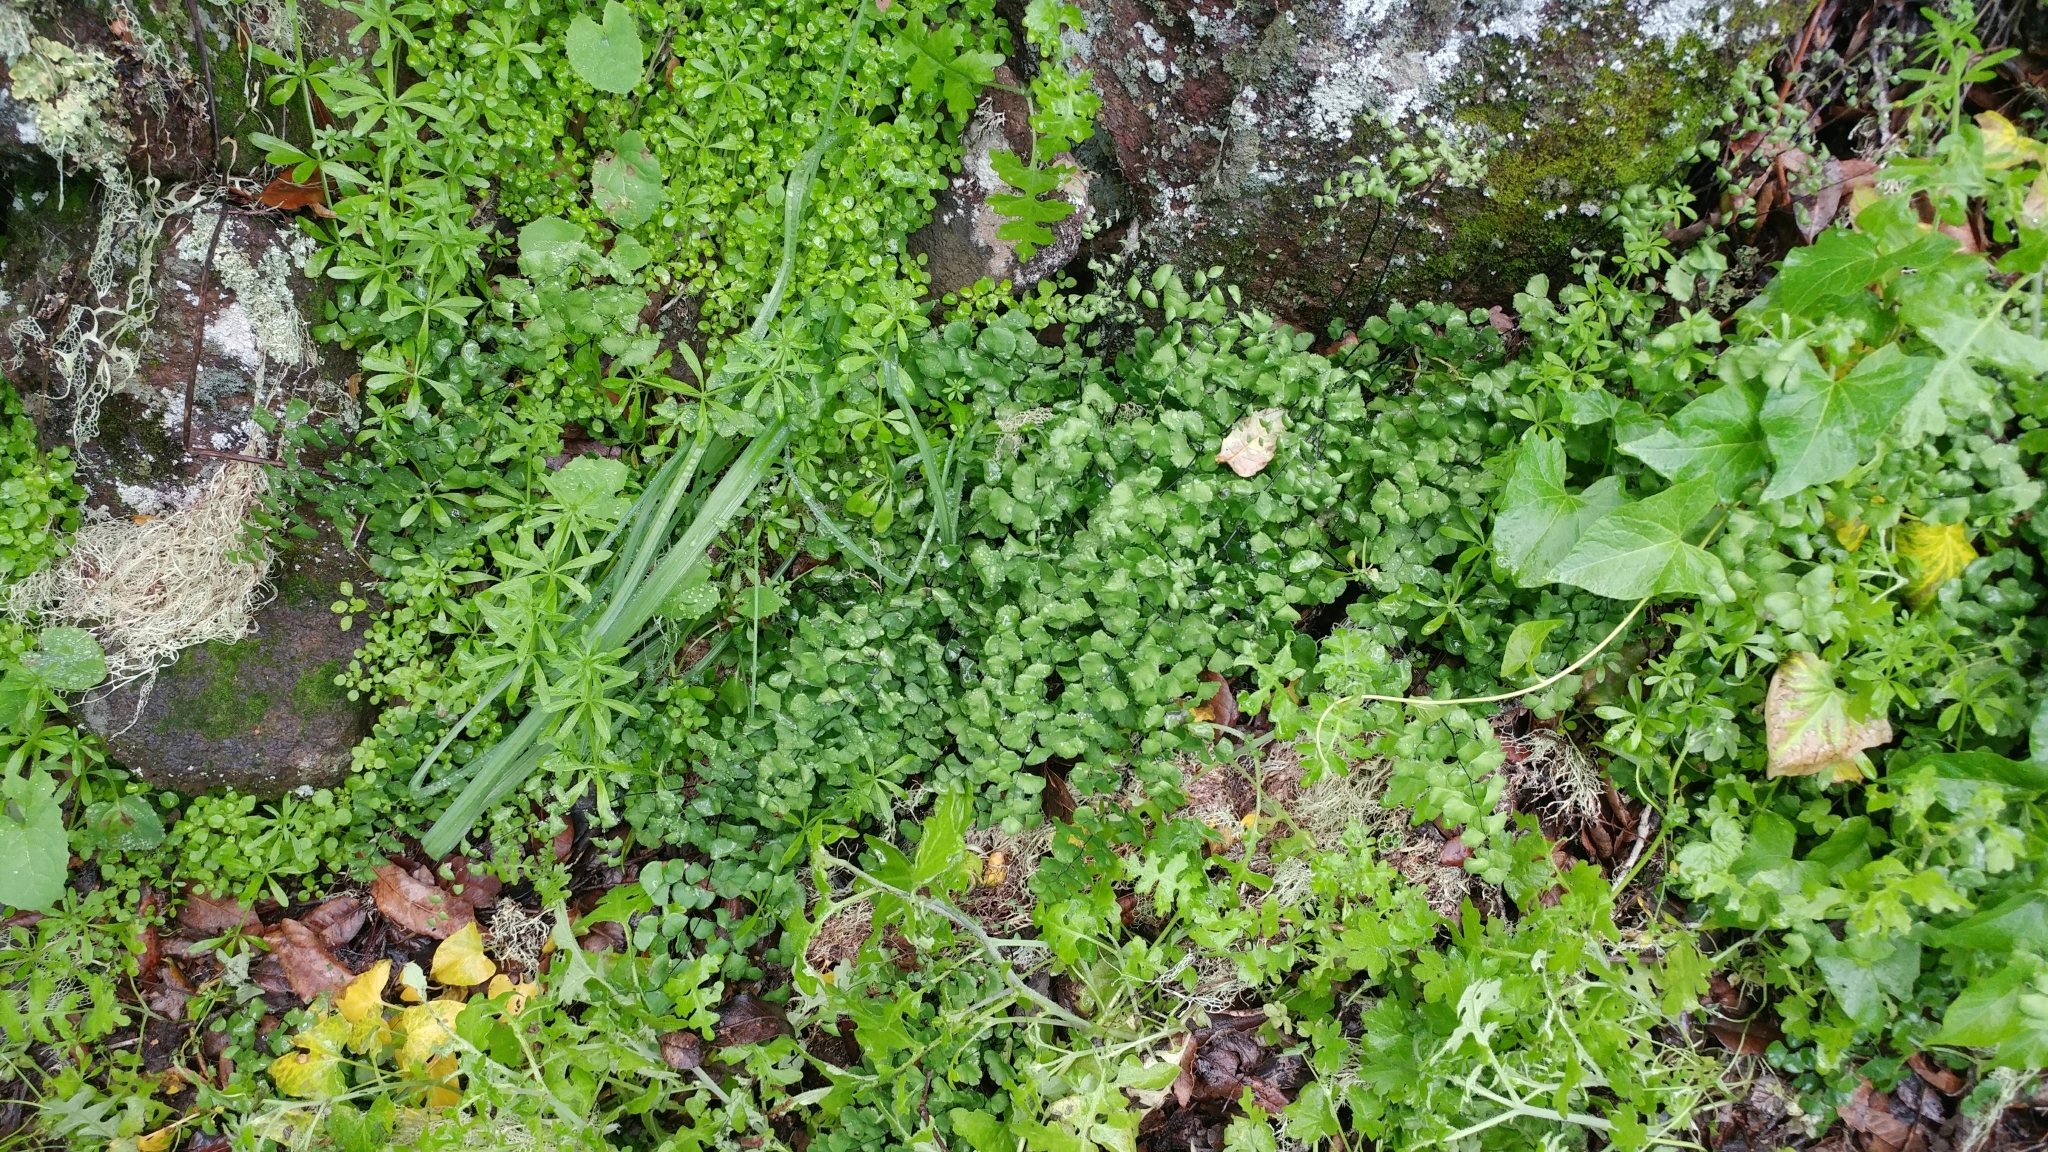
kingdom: Plantae
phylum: Tracheophyta
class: Polypodiopsida
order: Polypodiales
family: Pteridaceae
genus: Adiantum
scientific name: Adiantum jordanii
